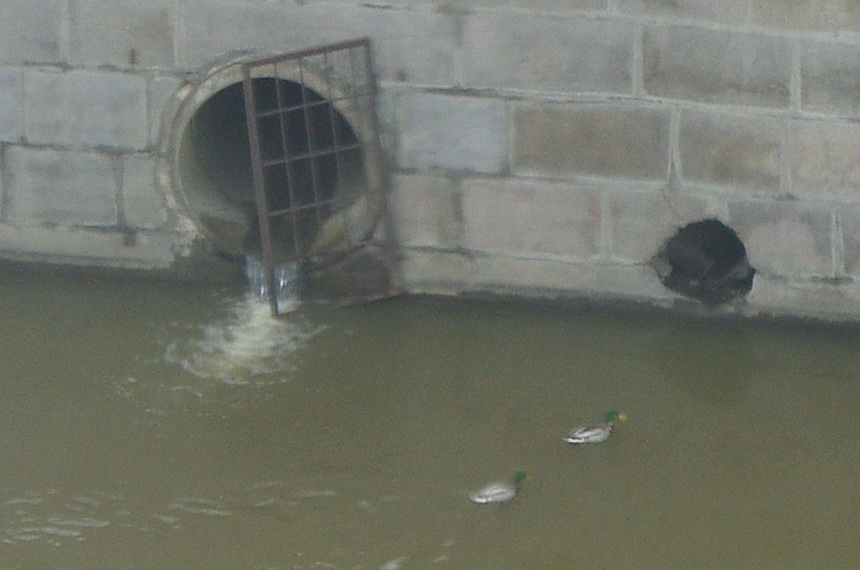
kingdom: Animalia
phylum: Chordata
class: Aves
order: Anseriformes
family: Anatidae
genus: Anas
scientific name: Anas platyrhynchos
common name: Mallard
